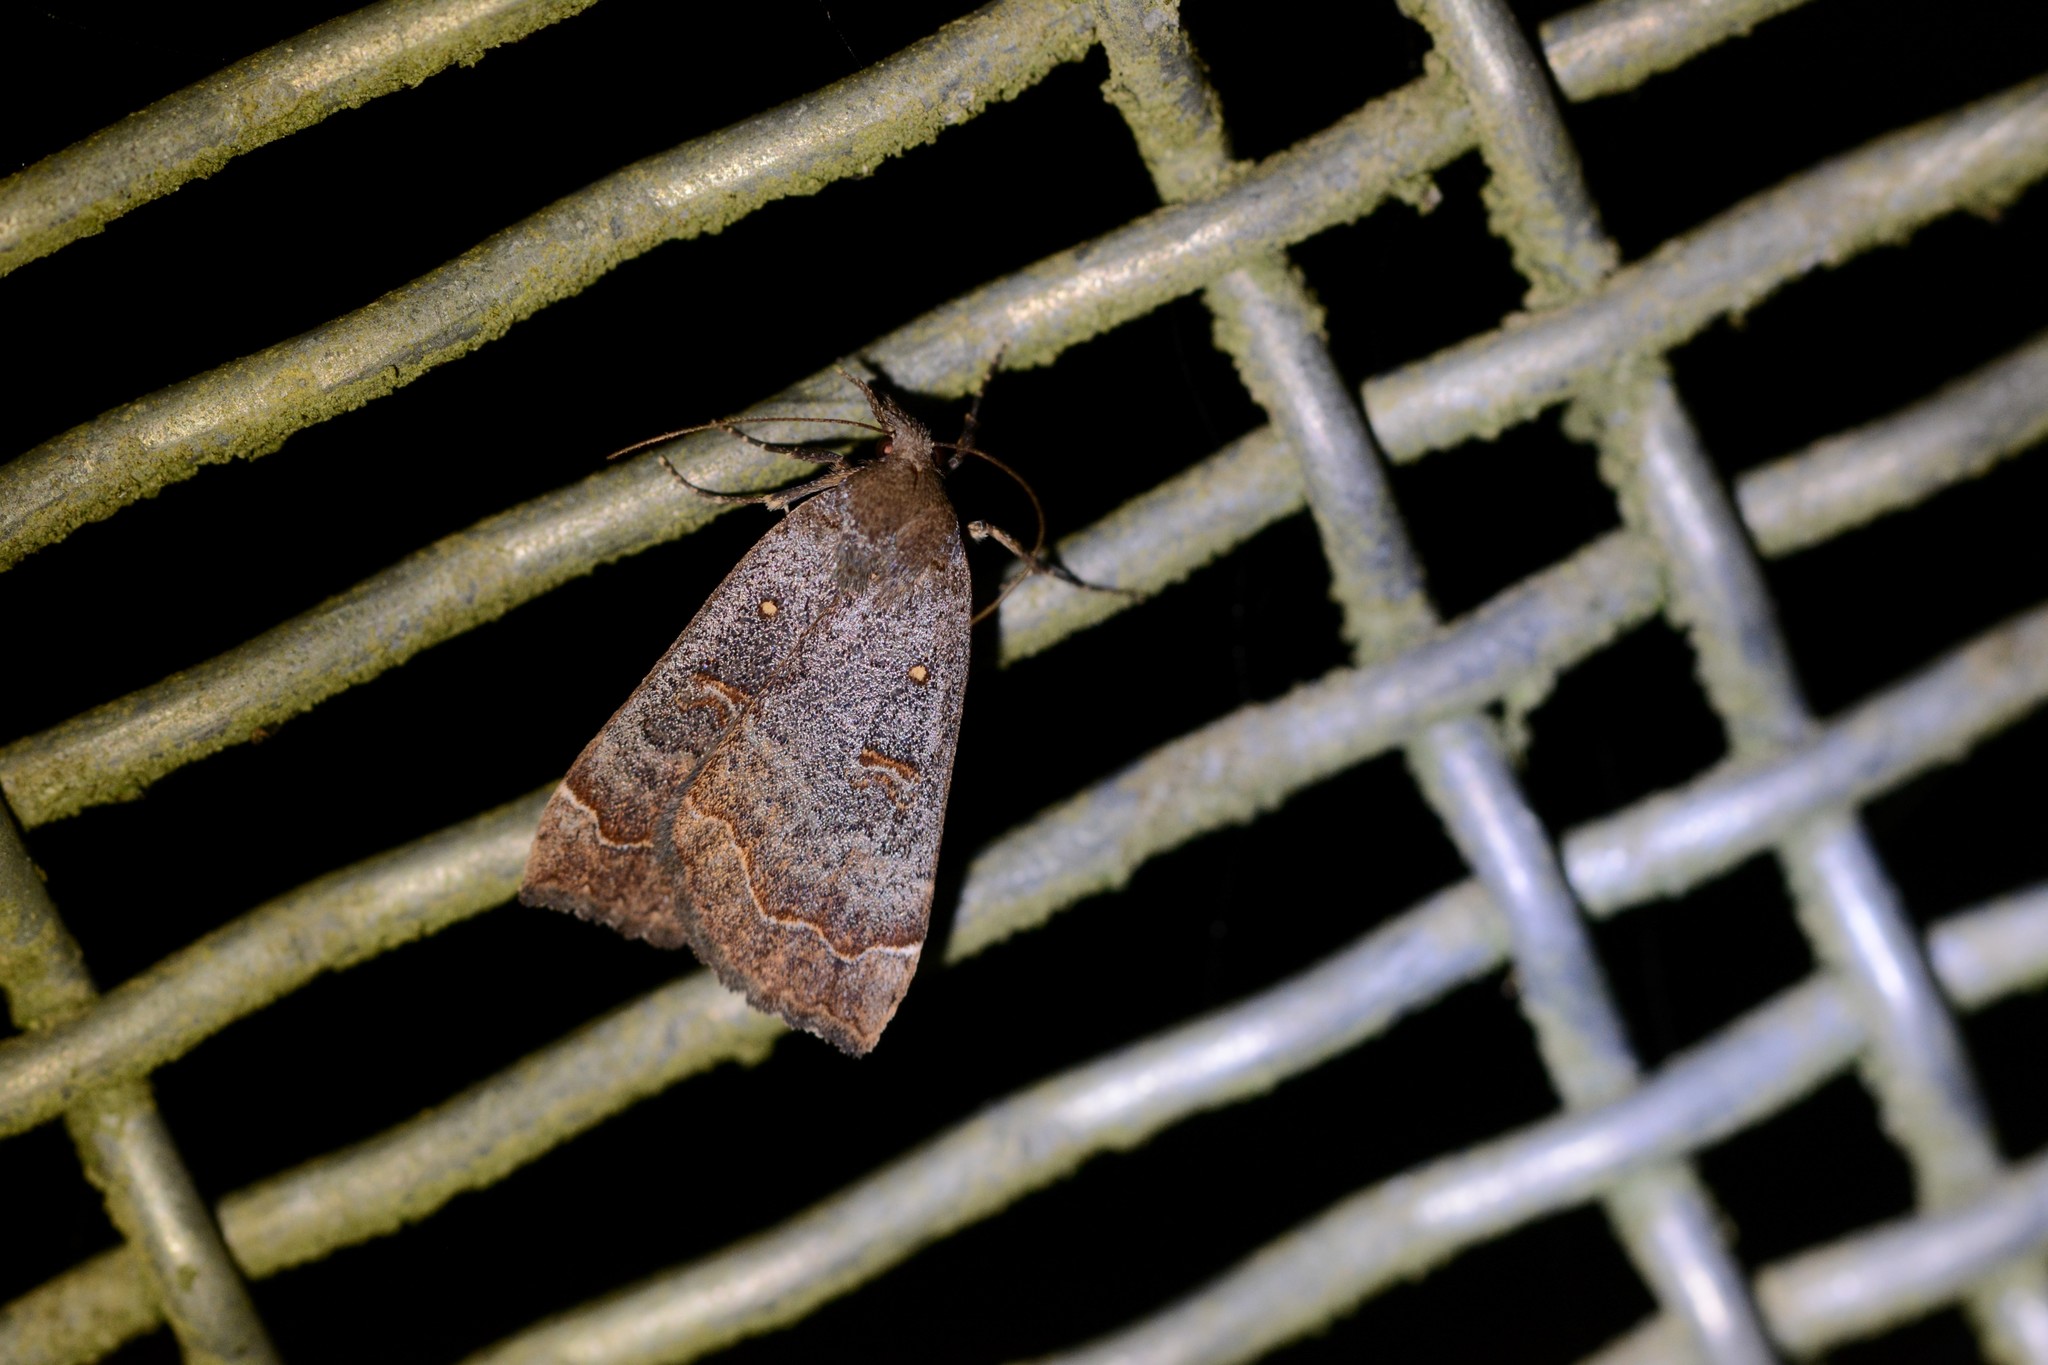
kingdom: Animalia
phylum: Arthropoda
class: Insecta
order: Lepidoptera
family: Erebidae
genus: Rhapsa
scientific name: Rhapsa scotosialis
